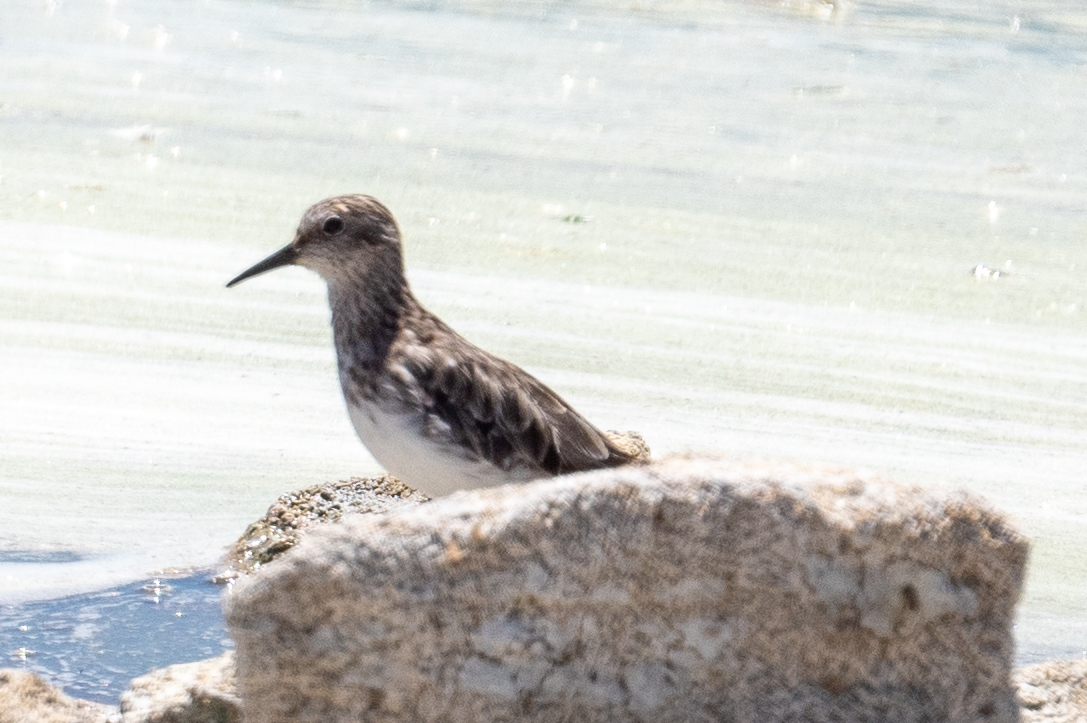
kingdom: Animalia
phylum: Chordata
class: Aves
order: Charadriiformes
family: Scolopacidae
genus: Calidris
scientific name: Calidris minutilla
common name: Least sandpiper
